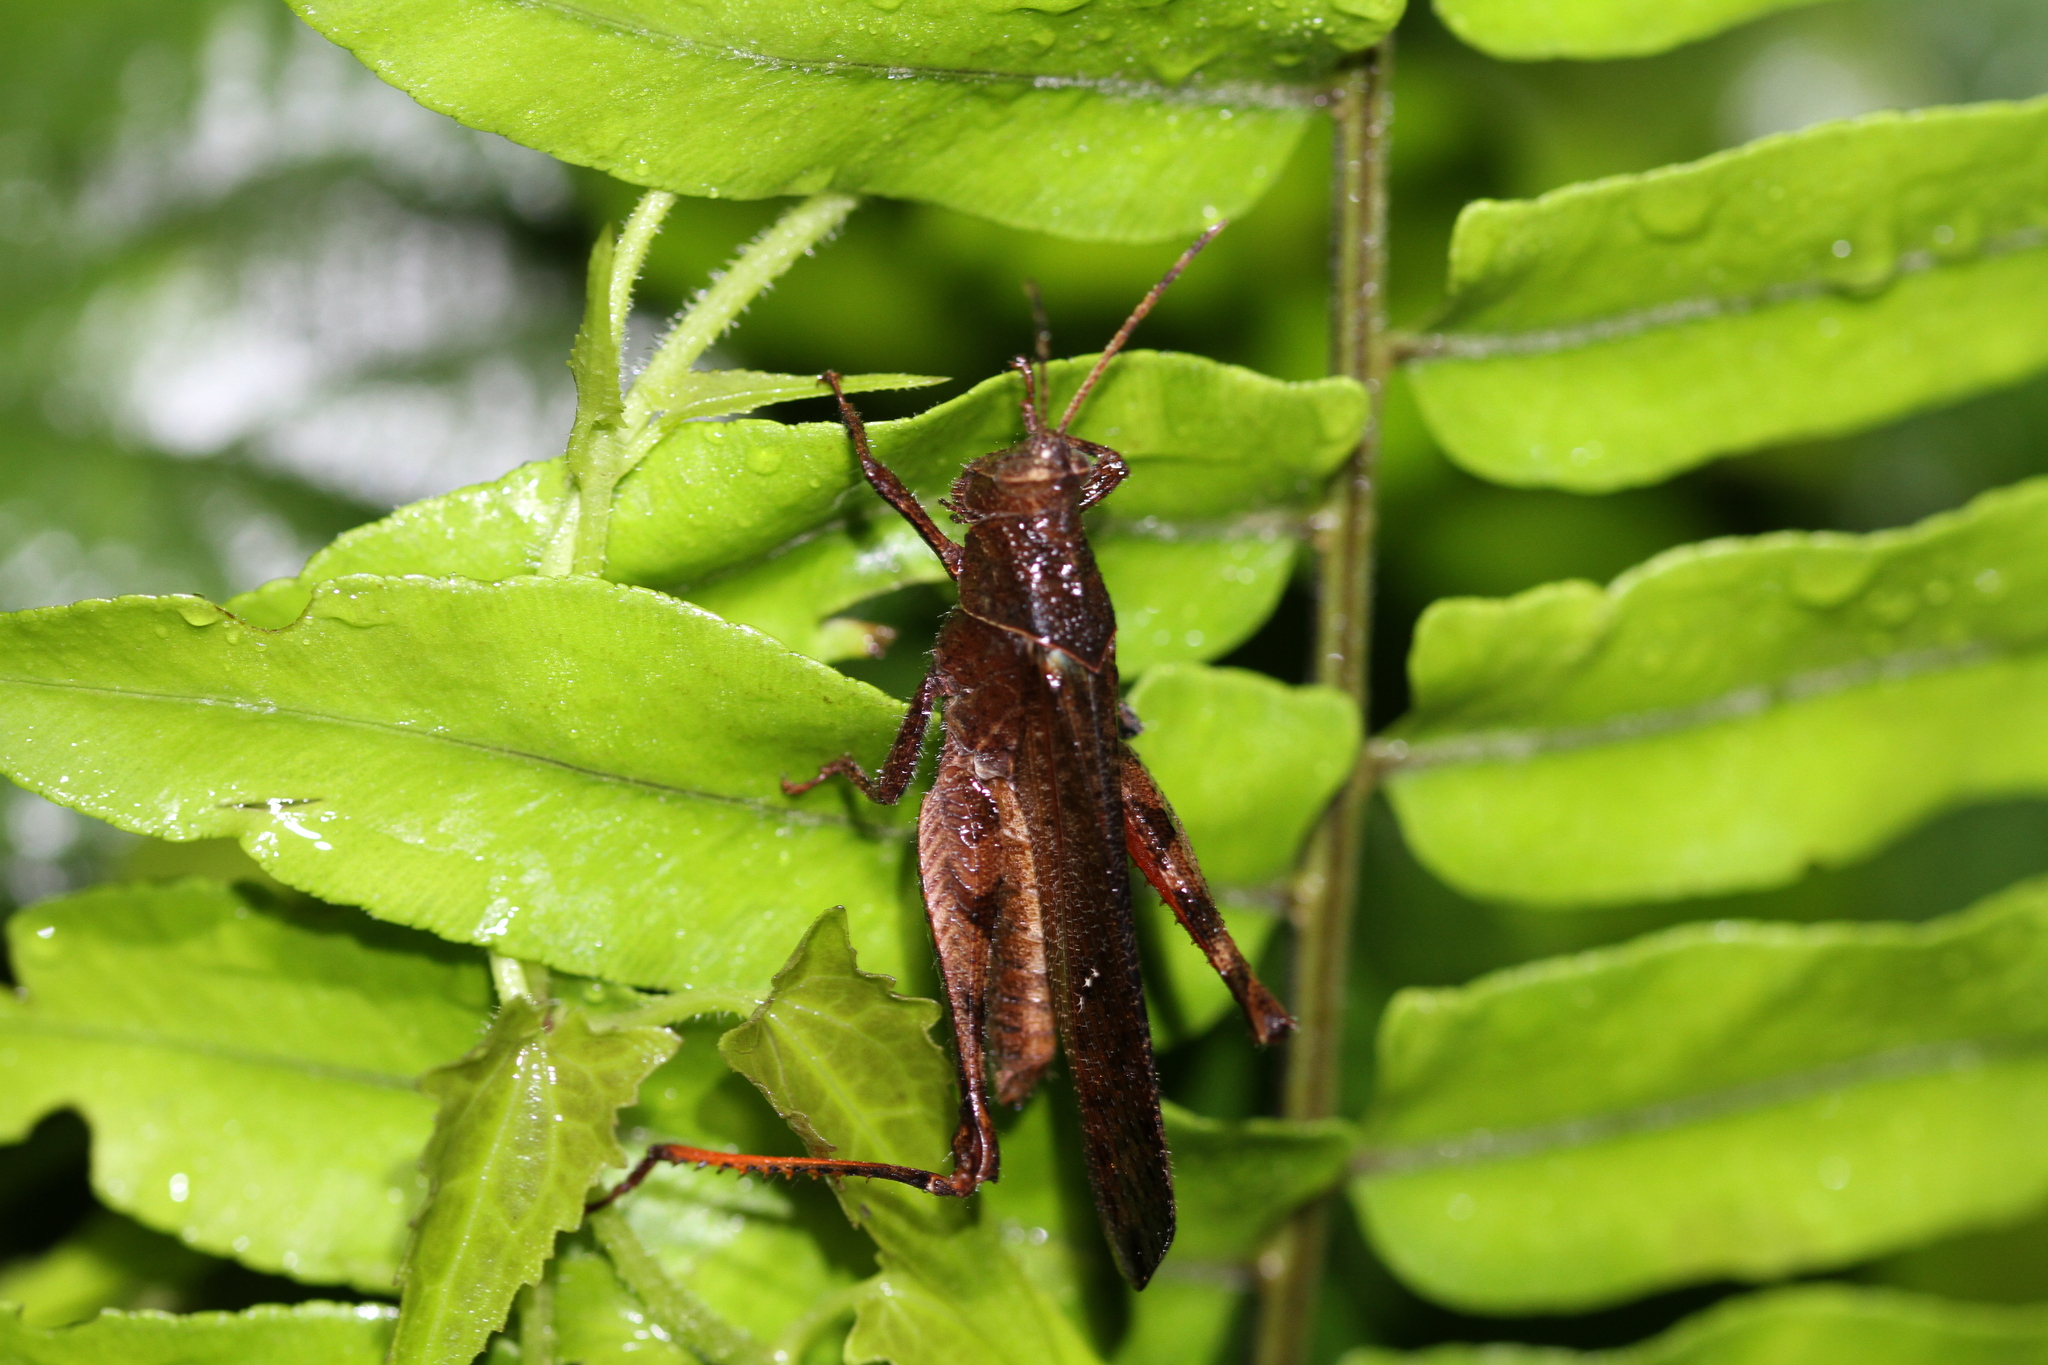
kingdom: Animalia
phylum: Arthropoda
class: Insecta
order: Orthoptera
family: Acrididae
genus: Coptacra
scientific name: Coptacra foedata
